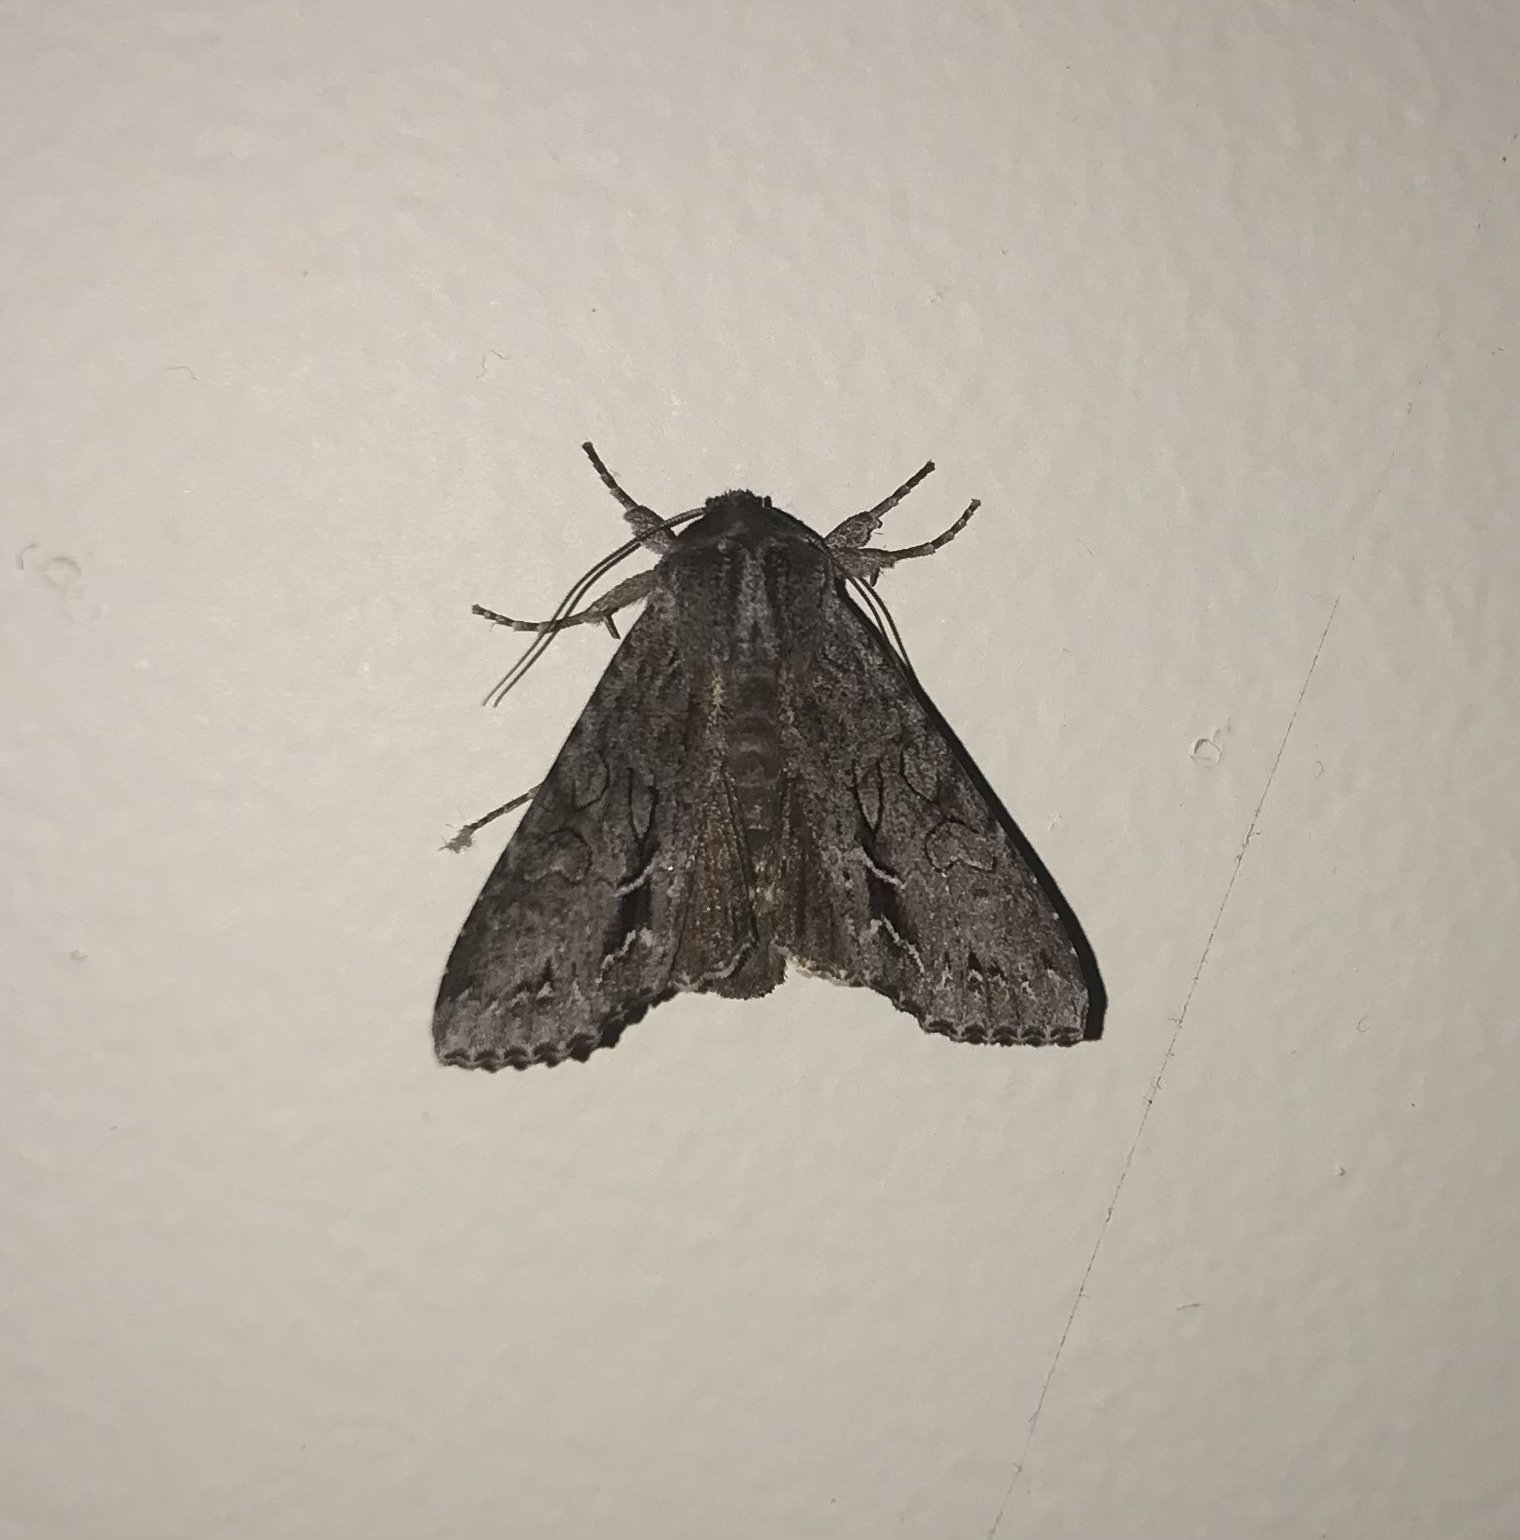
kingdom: Animalia
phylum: Arthropoda
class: Insecta
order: Lepidoptera
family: Noctuidae
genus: Ichneutica
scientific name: Ichneutica
